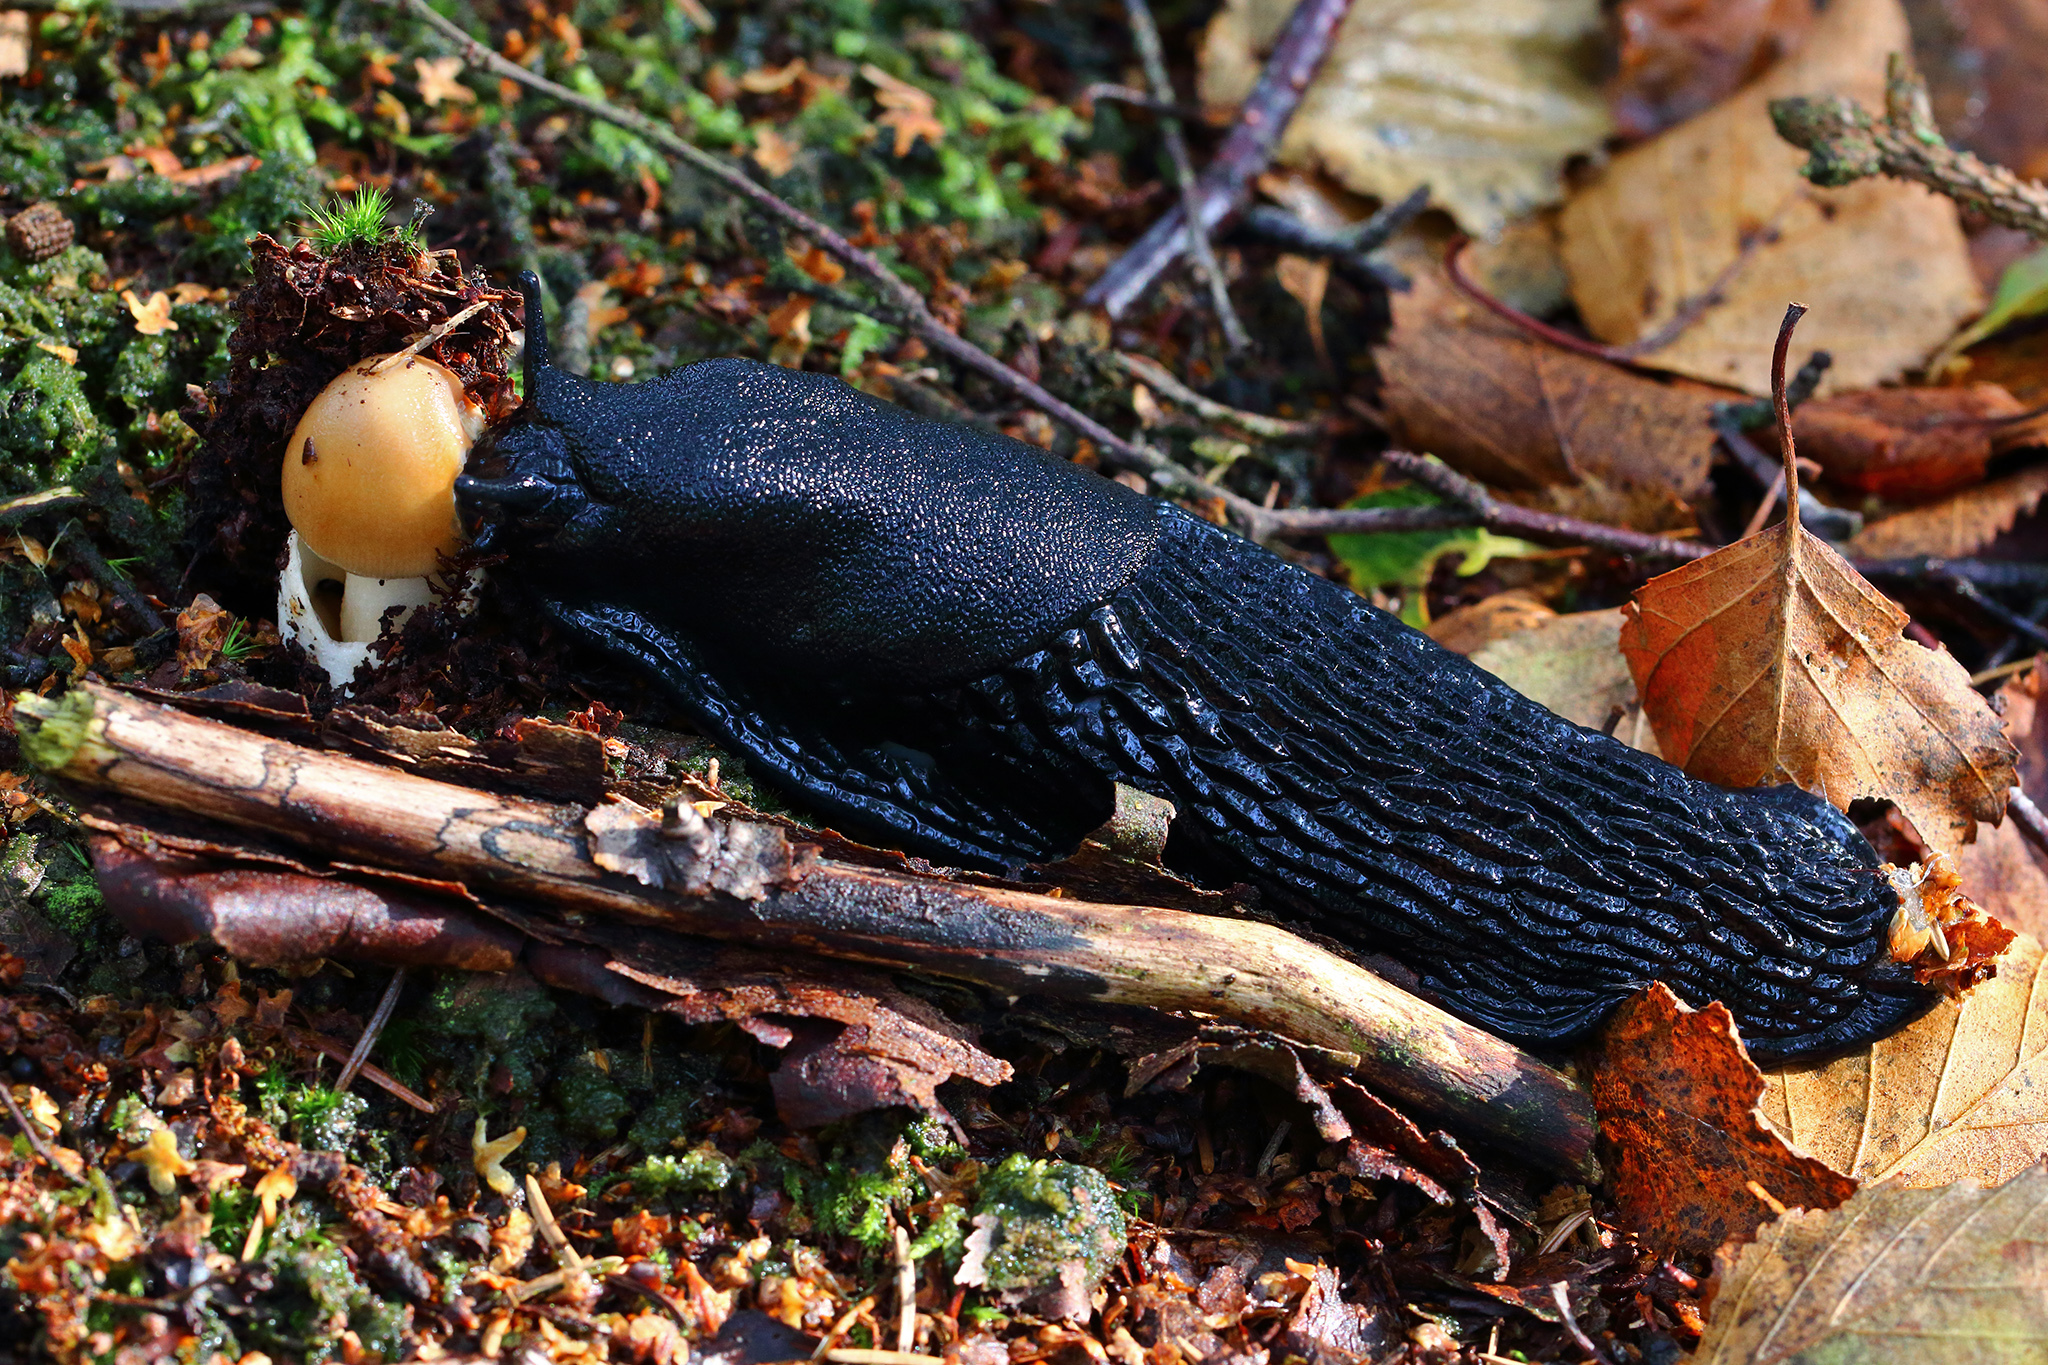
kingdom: Animalia
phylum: Mollusca
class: Gastropoda
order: Stylommatophora
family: Arionidae
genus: Arion
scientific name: Arion ater
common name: Black arion
